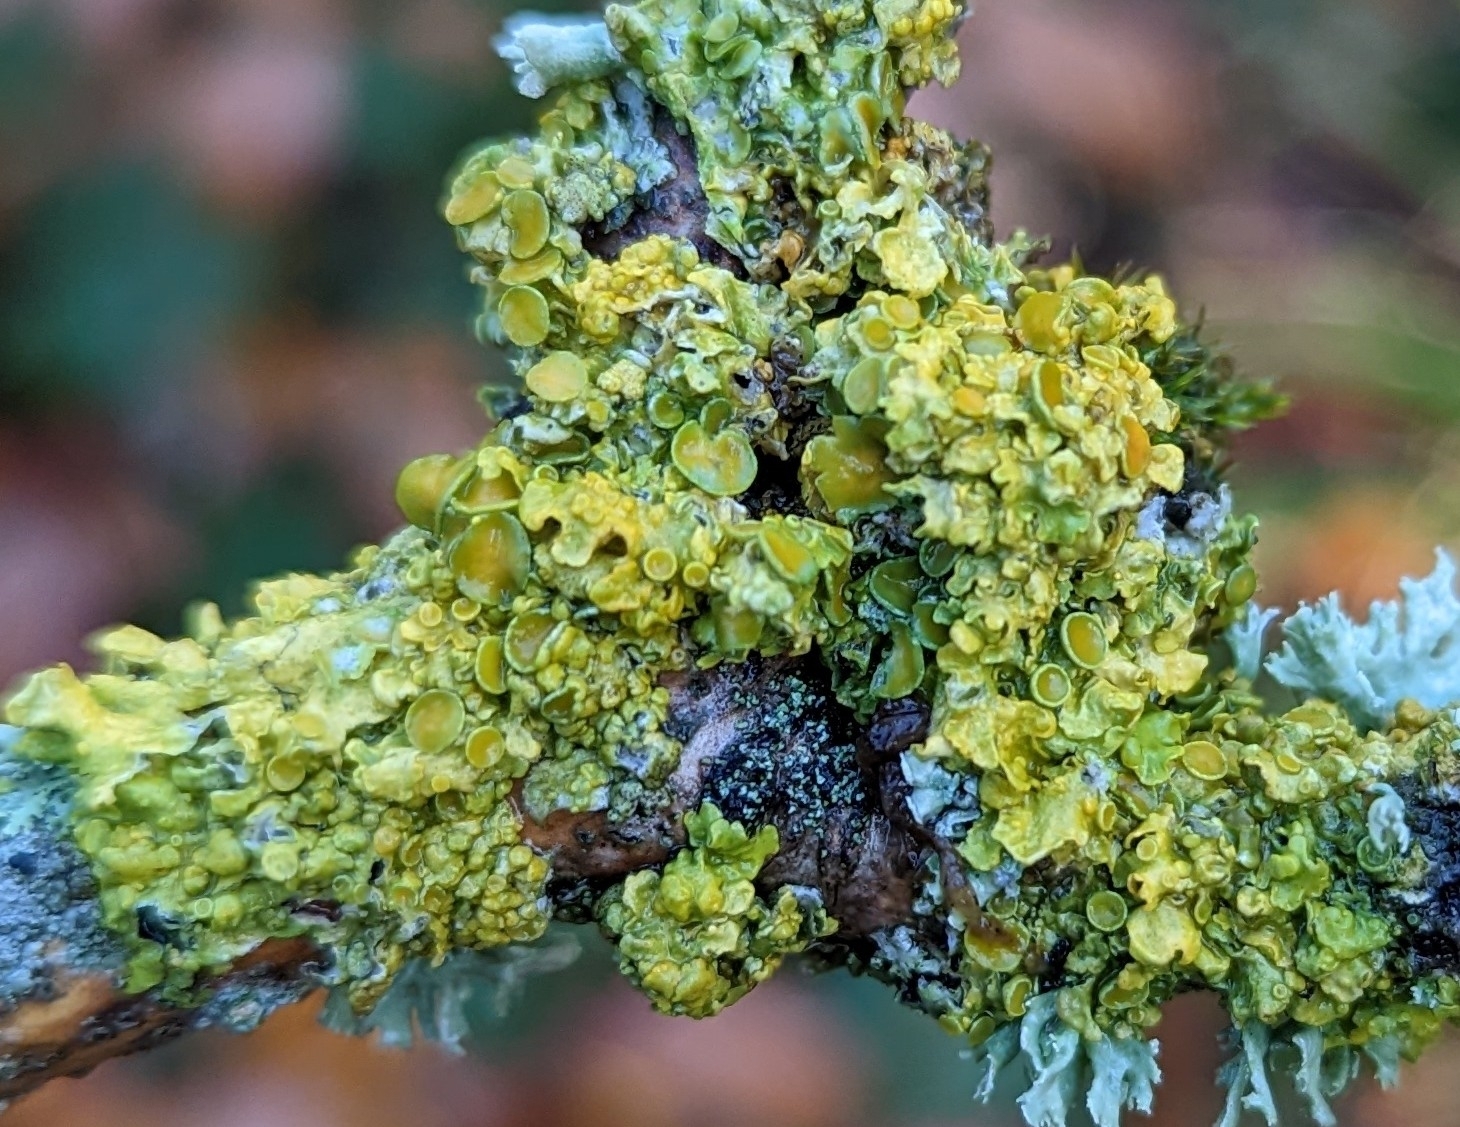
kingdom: Fungi
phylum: Ascomycota
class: Lecanoromycetes
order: Teloschistales
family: Teloschistaceae
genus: Xanthoria
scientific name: Xanthoria parietina
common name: Common orange lichen
